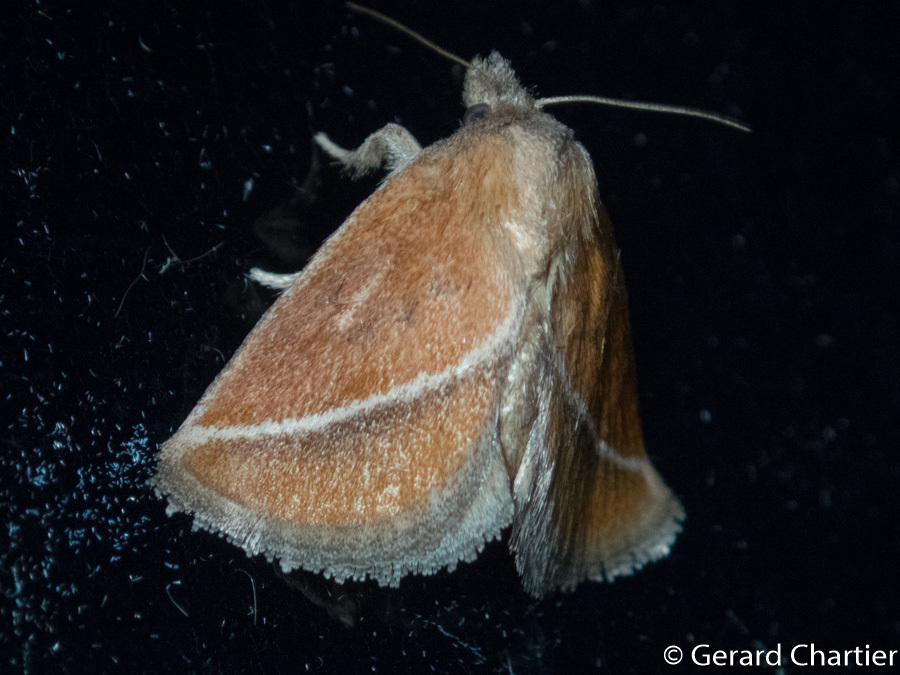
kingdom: Animalia
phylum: Arthropoda
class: Insecta
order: Lepidoptera
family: Limacodidae
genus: Oxyplax
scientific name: Oxyplax pallivitta
